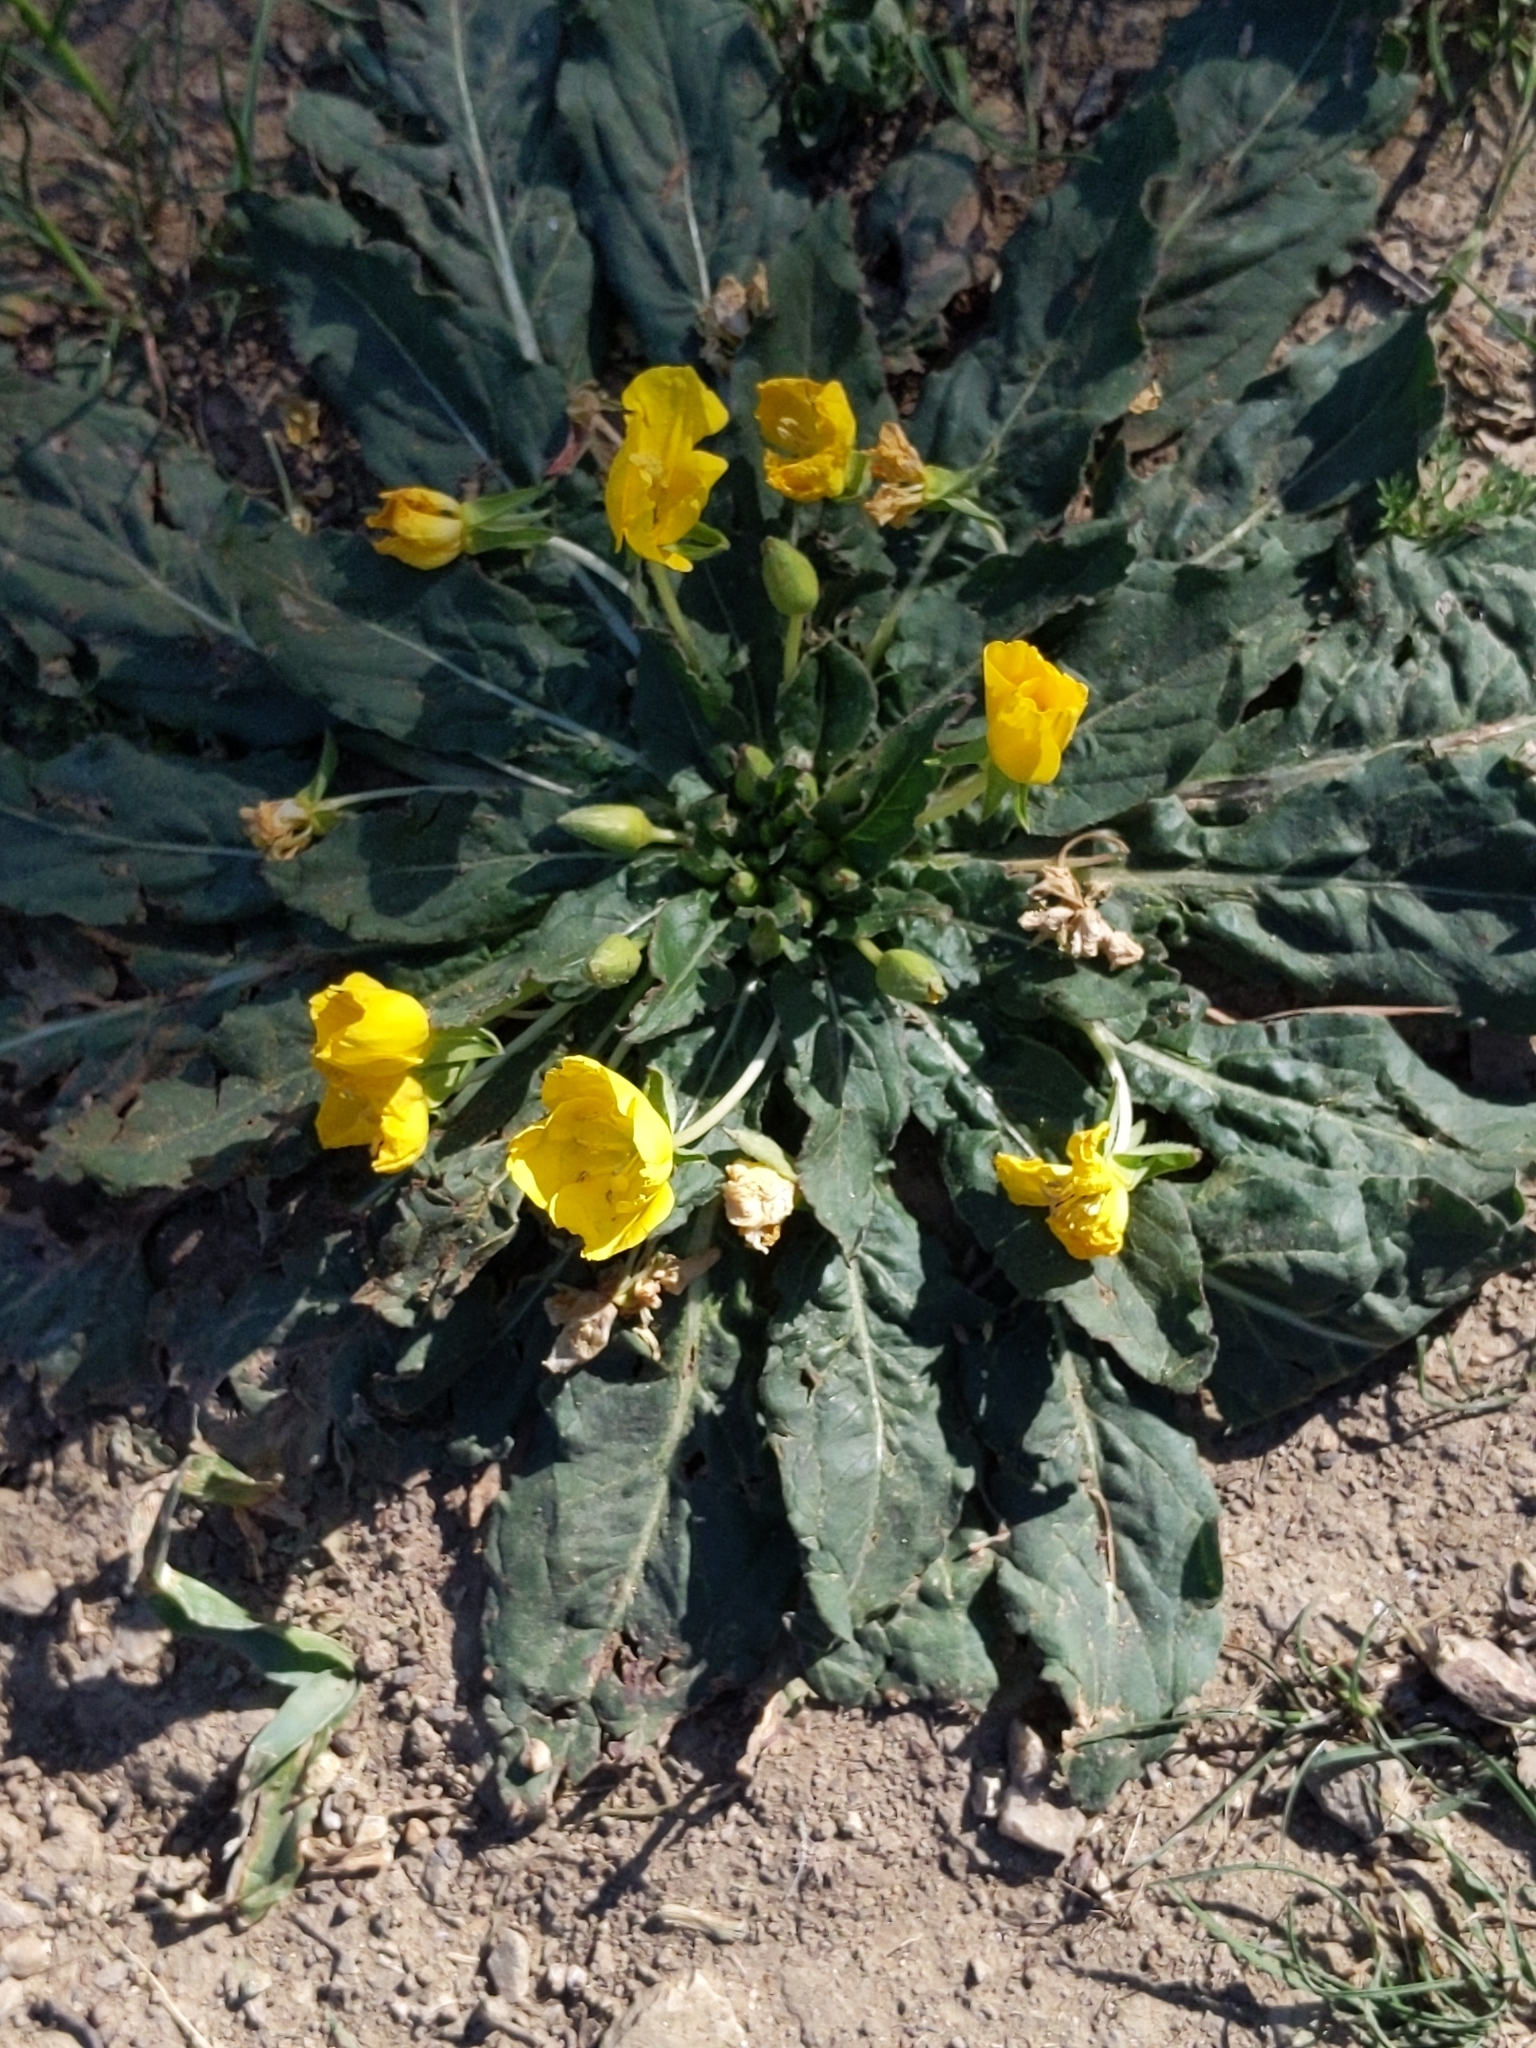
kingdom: Plantae
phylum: Tracheophyta
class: Magnoliopsida
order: Myrtales
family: Onagraceae
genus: Taraxia
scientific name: Taraxia ovata
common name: Goldeneggs
